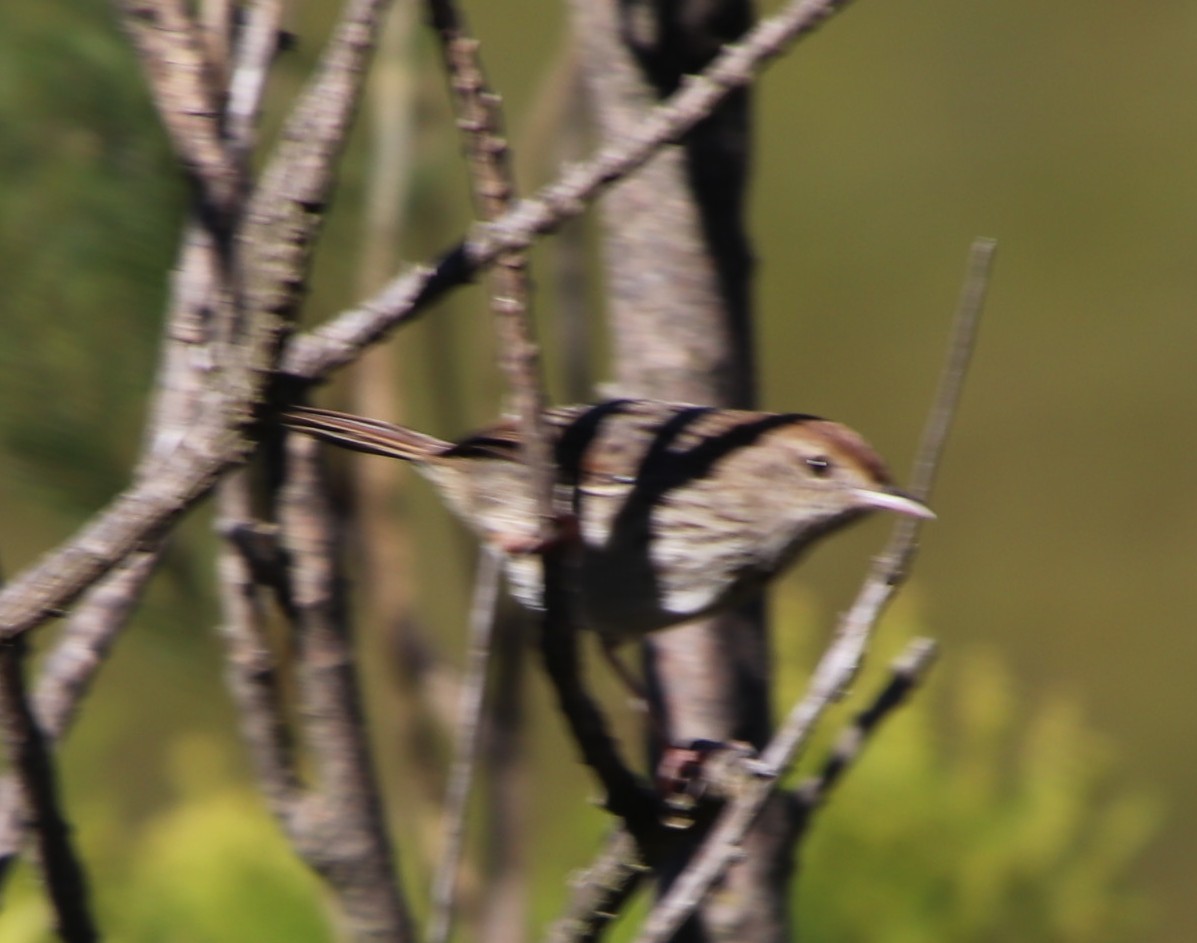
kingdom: Animalia
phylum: Chordata
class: Aves
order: Passeriformes
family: Cisticolidae
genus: Cisticola
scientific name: Cisticola subruficapilla
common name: Grey-backed cisticola
